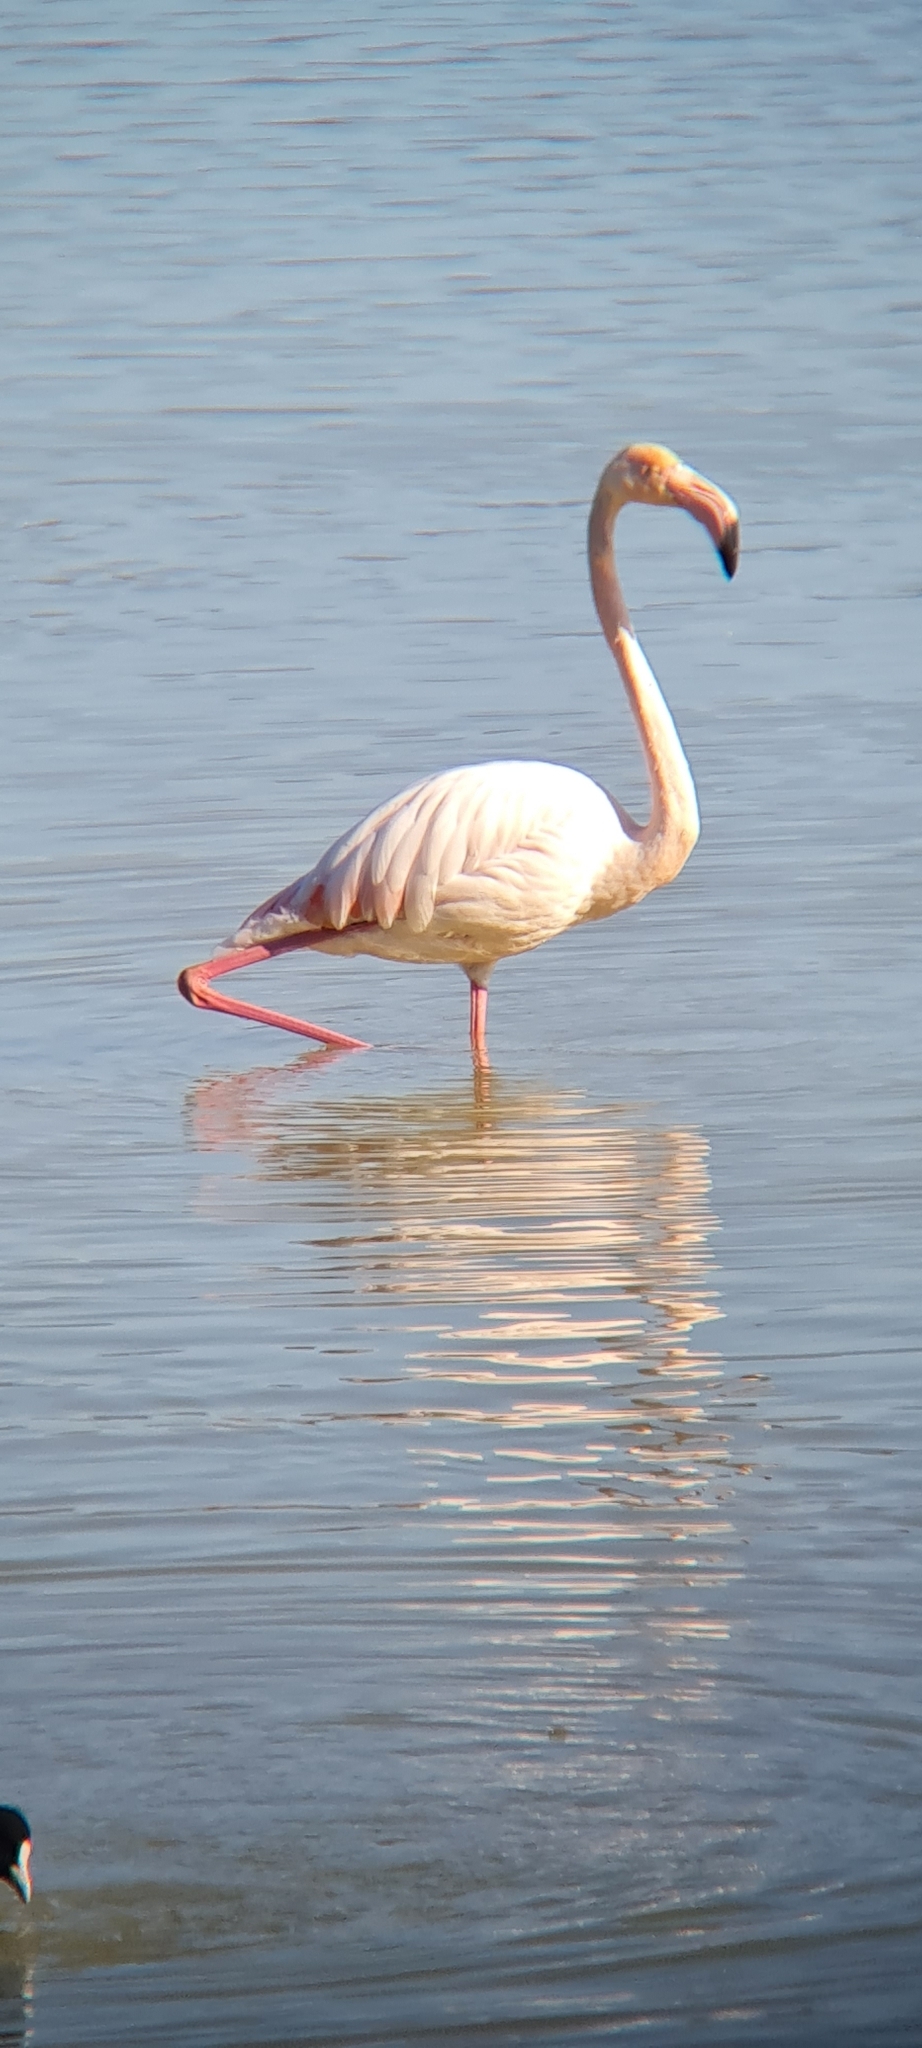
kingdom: Animalia
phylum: Chordata
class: Aves
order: Phoenicopteriformes
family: Phoenicopteridae
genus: Phoenicopterus
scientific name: Phoenicopterus roseus
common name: Greater flamingo
